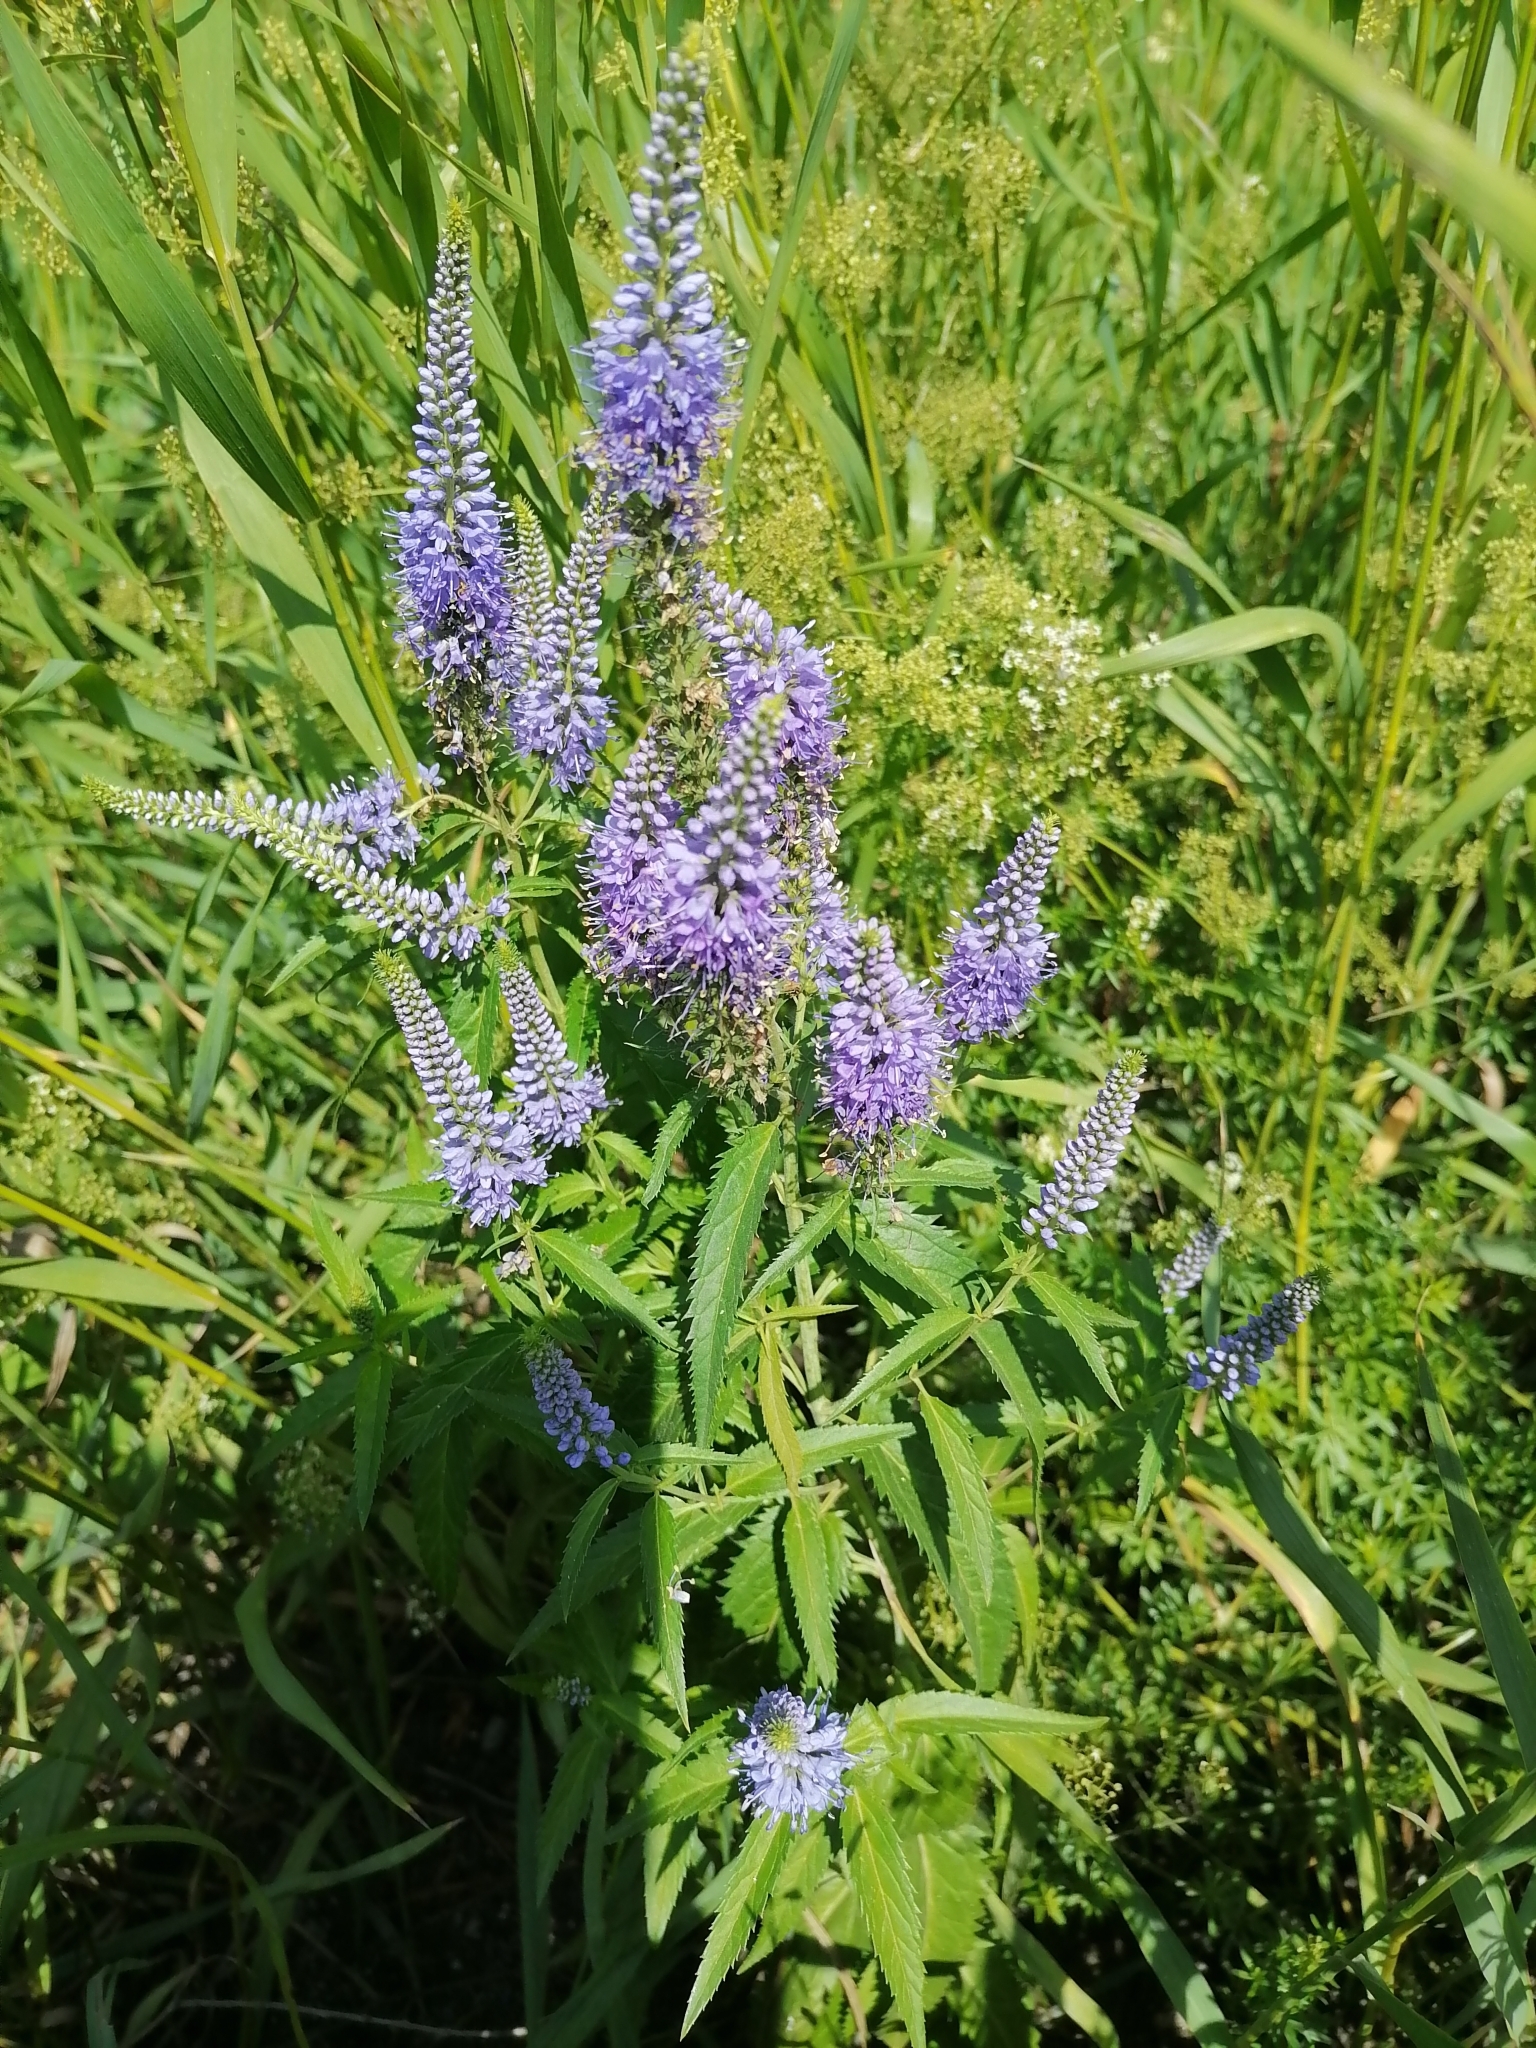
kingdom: Plantae
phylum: Tracheophyta
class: Magnoliopsida
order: Lamiales
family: Plantaginaceae
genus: Veronica
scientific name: Veronica longifolia
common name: Garden speedwell
